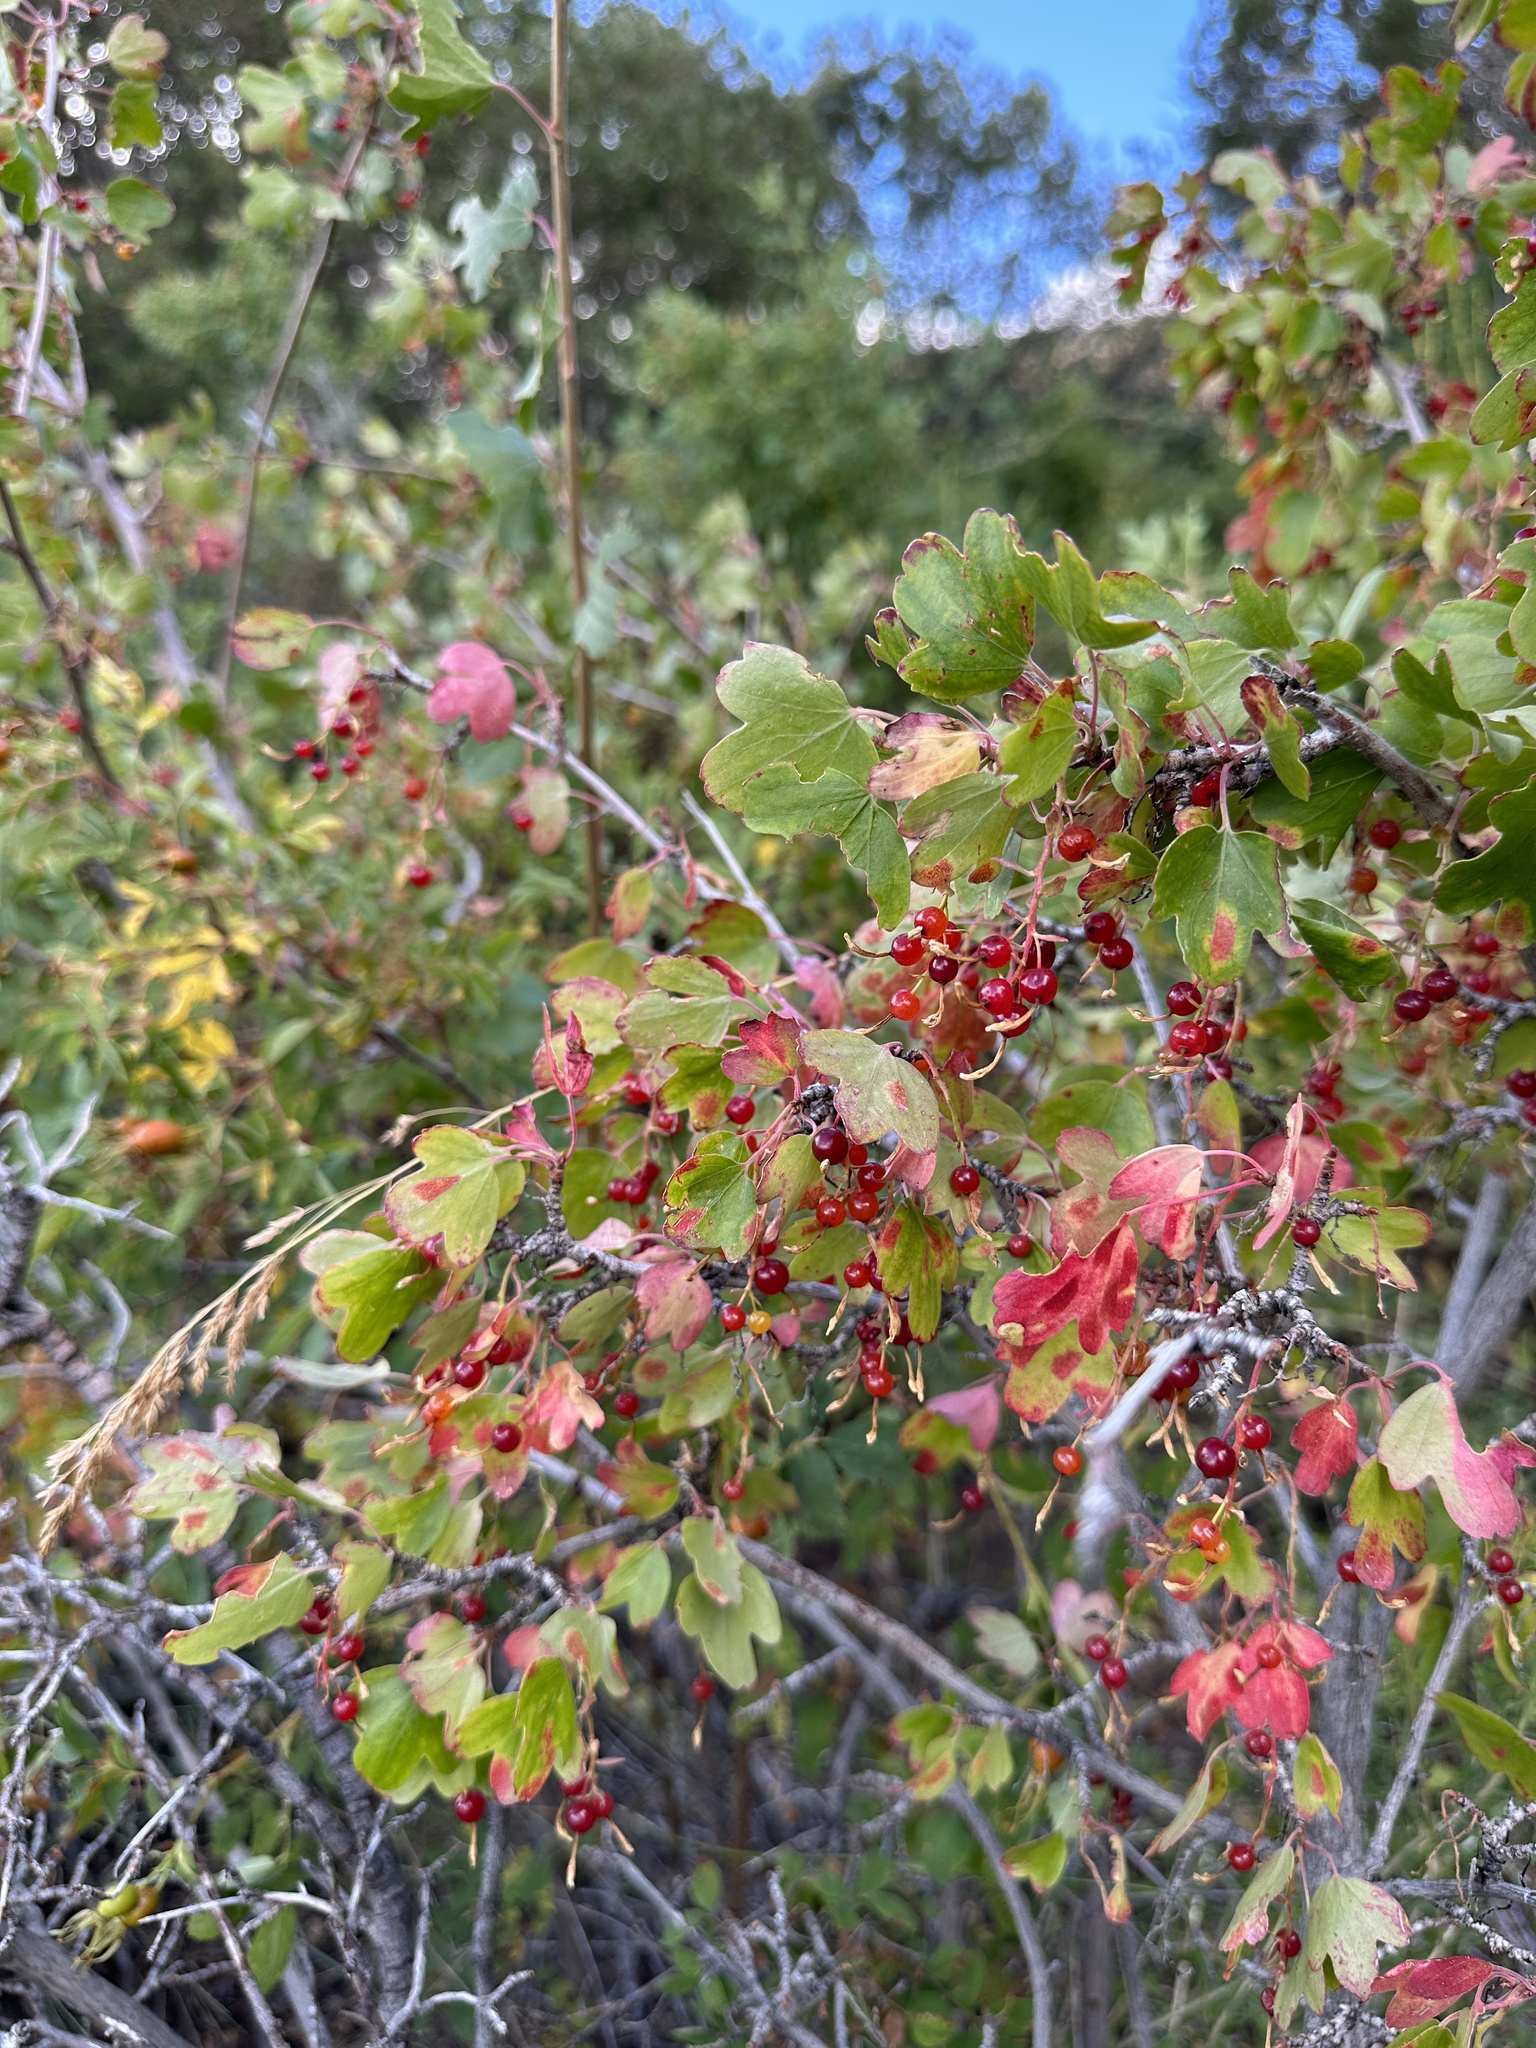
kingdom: Plantae
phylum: Tracheophyta
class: Magnoliopsida
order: Saxifragales
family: Grossulariaceae
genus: Ribes
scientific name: Ribes aureum
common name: Golden currant
